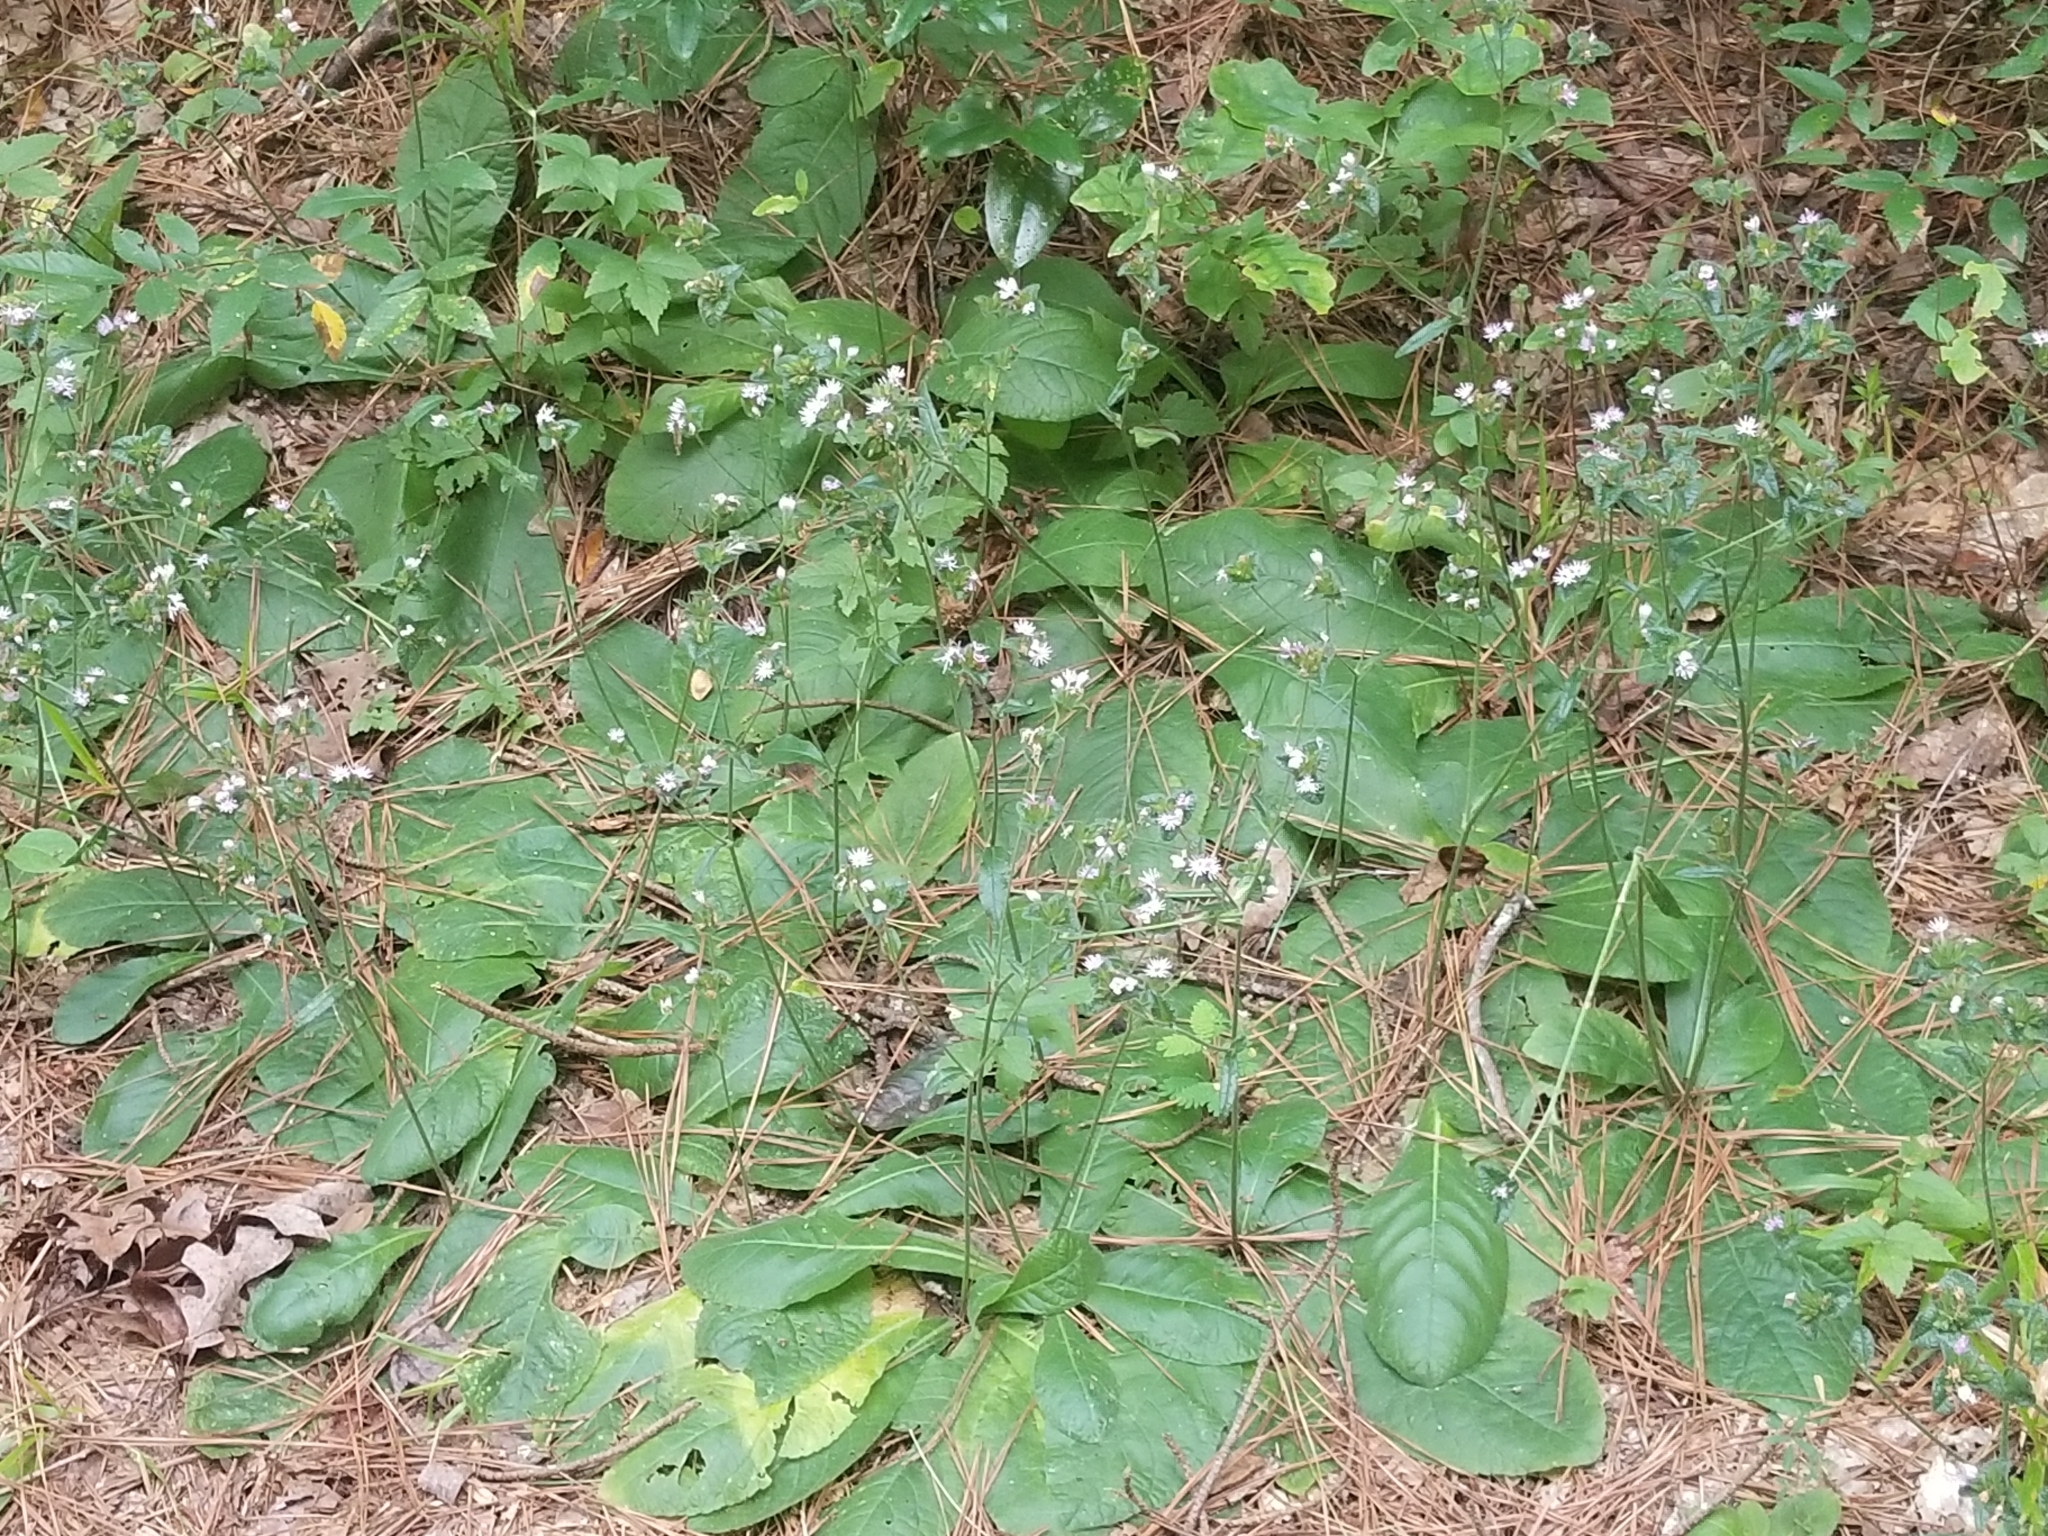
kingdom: Plantae
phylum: Tracheophyta
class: Magnoliopsida
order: Asterales
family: Asteraceae
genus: Elephantopus
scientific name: Elephantopus tomentosus
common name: Tobacco-weed
